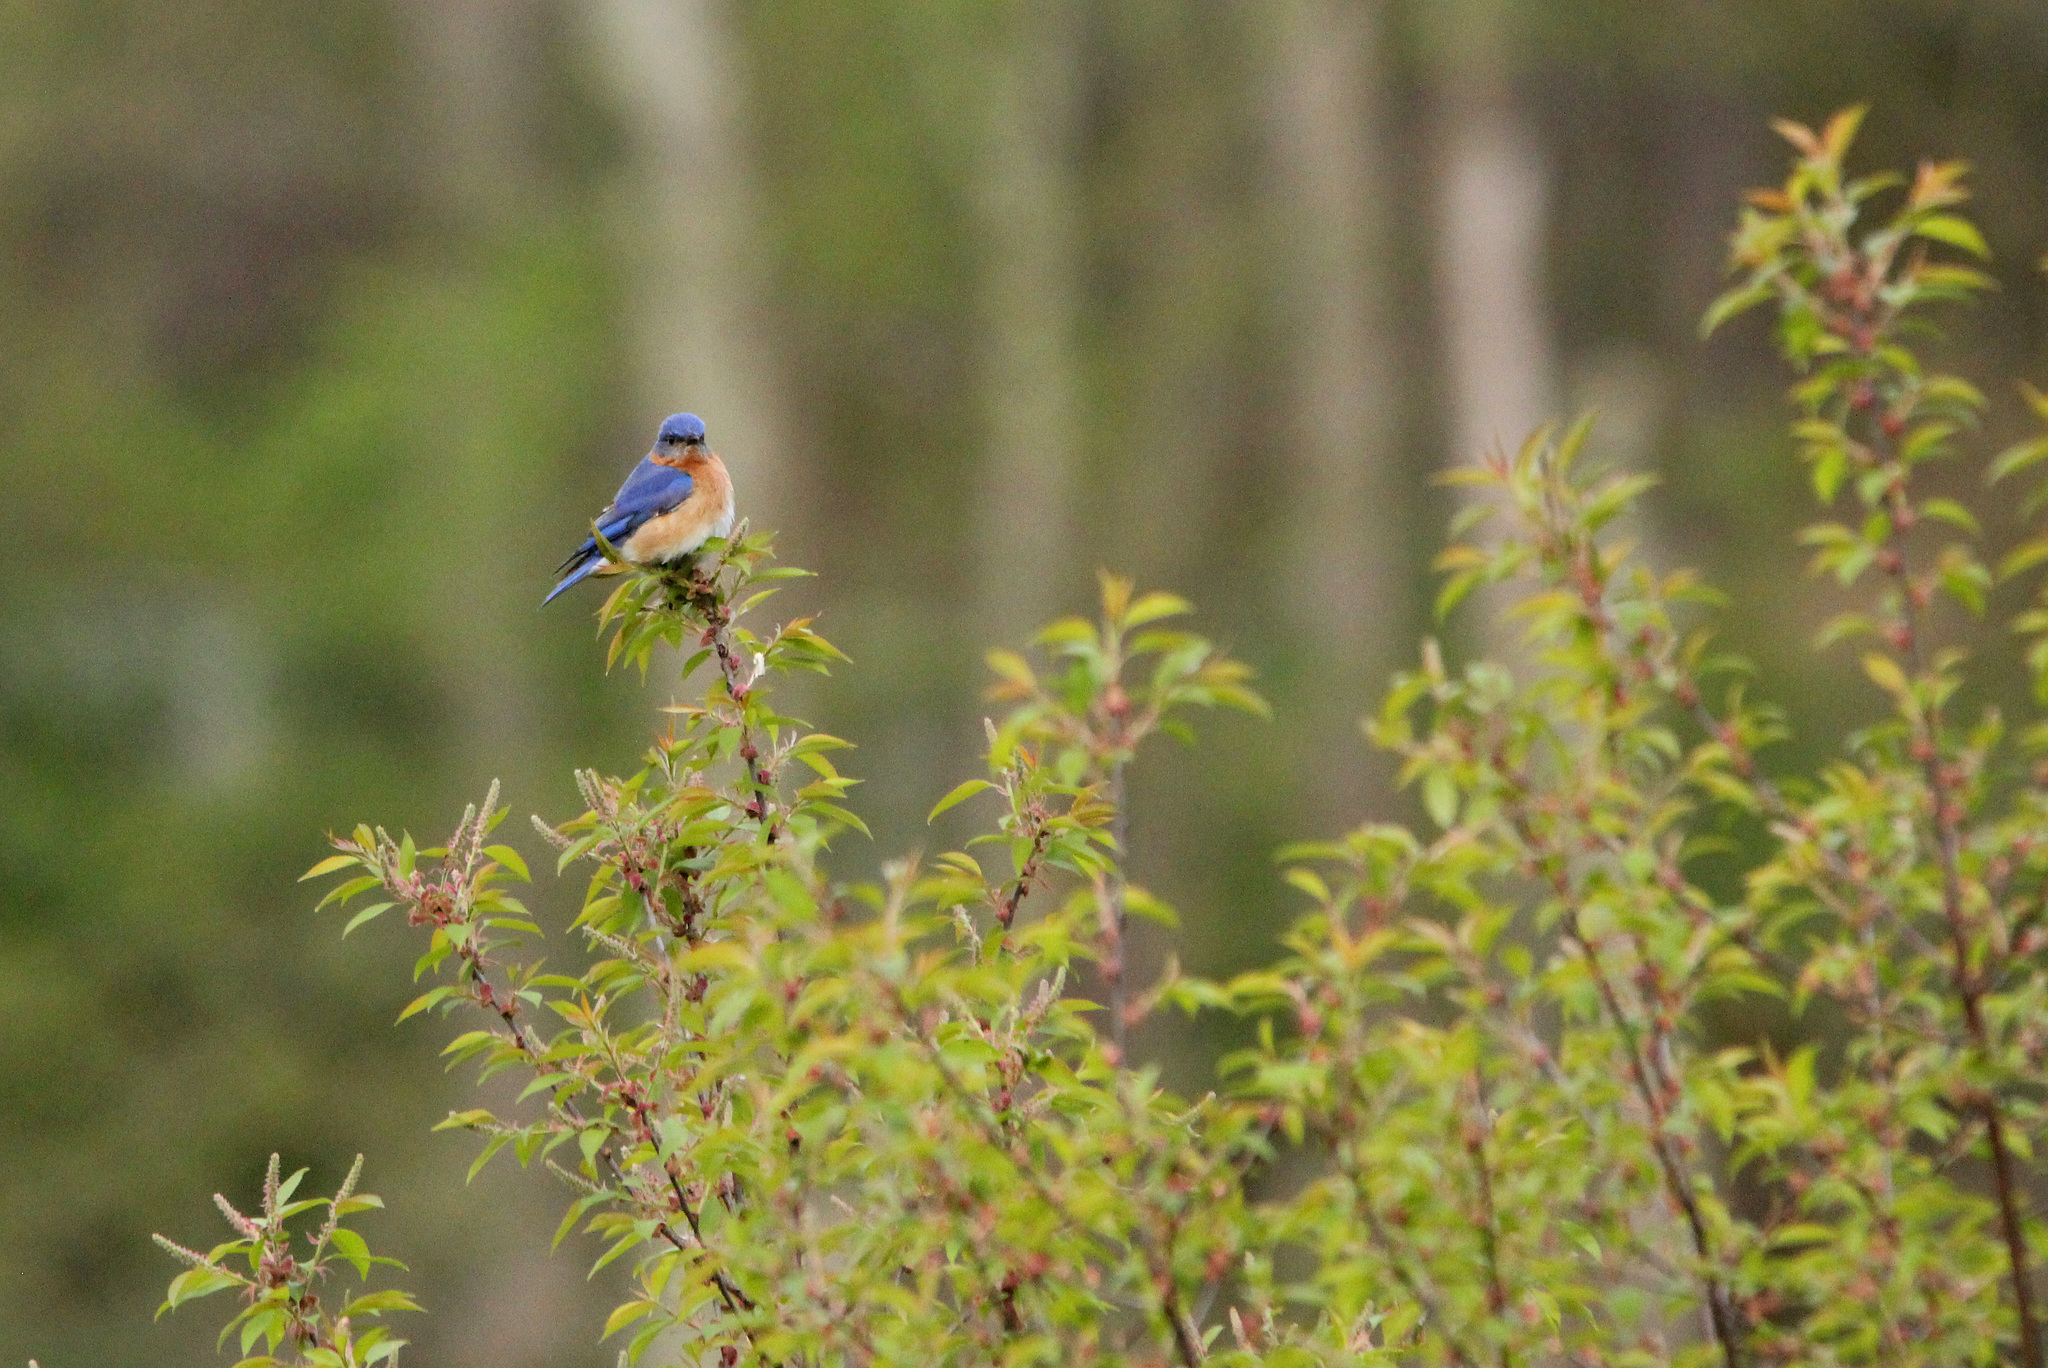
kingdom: Animalia
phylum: Chordata
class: Aves
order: Passeriformes
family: Turdidae
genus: Sialia
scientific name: Sialia sialis
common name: Eastern bluebird
